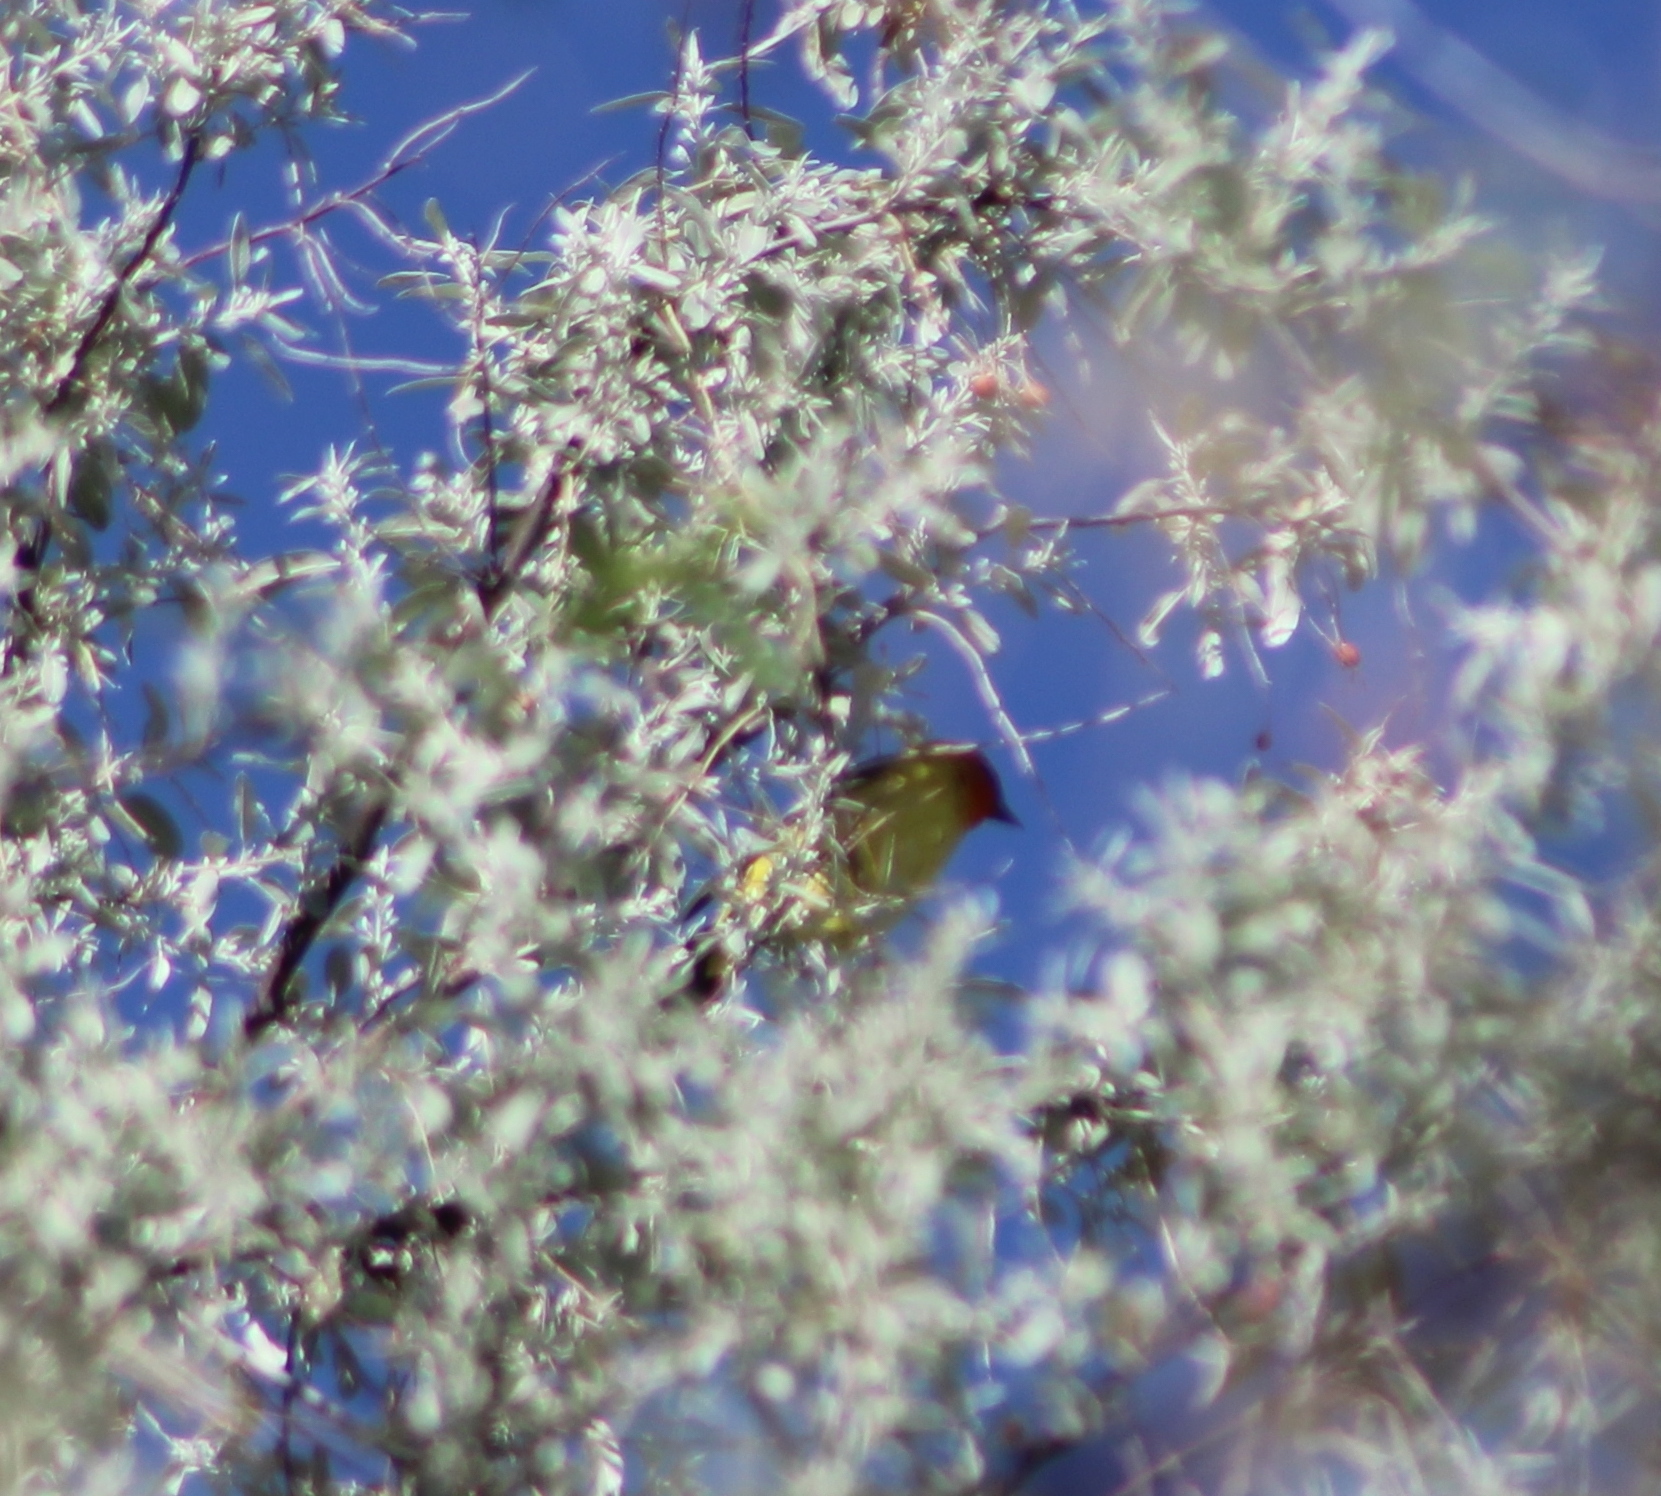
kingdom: Animalia
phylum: Chordata
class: Aves
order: Passeriformes
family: Cardinalidae
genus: Piranga
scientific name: Piranga ludoviciana
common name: Western tanager
